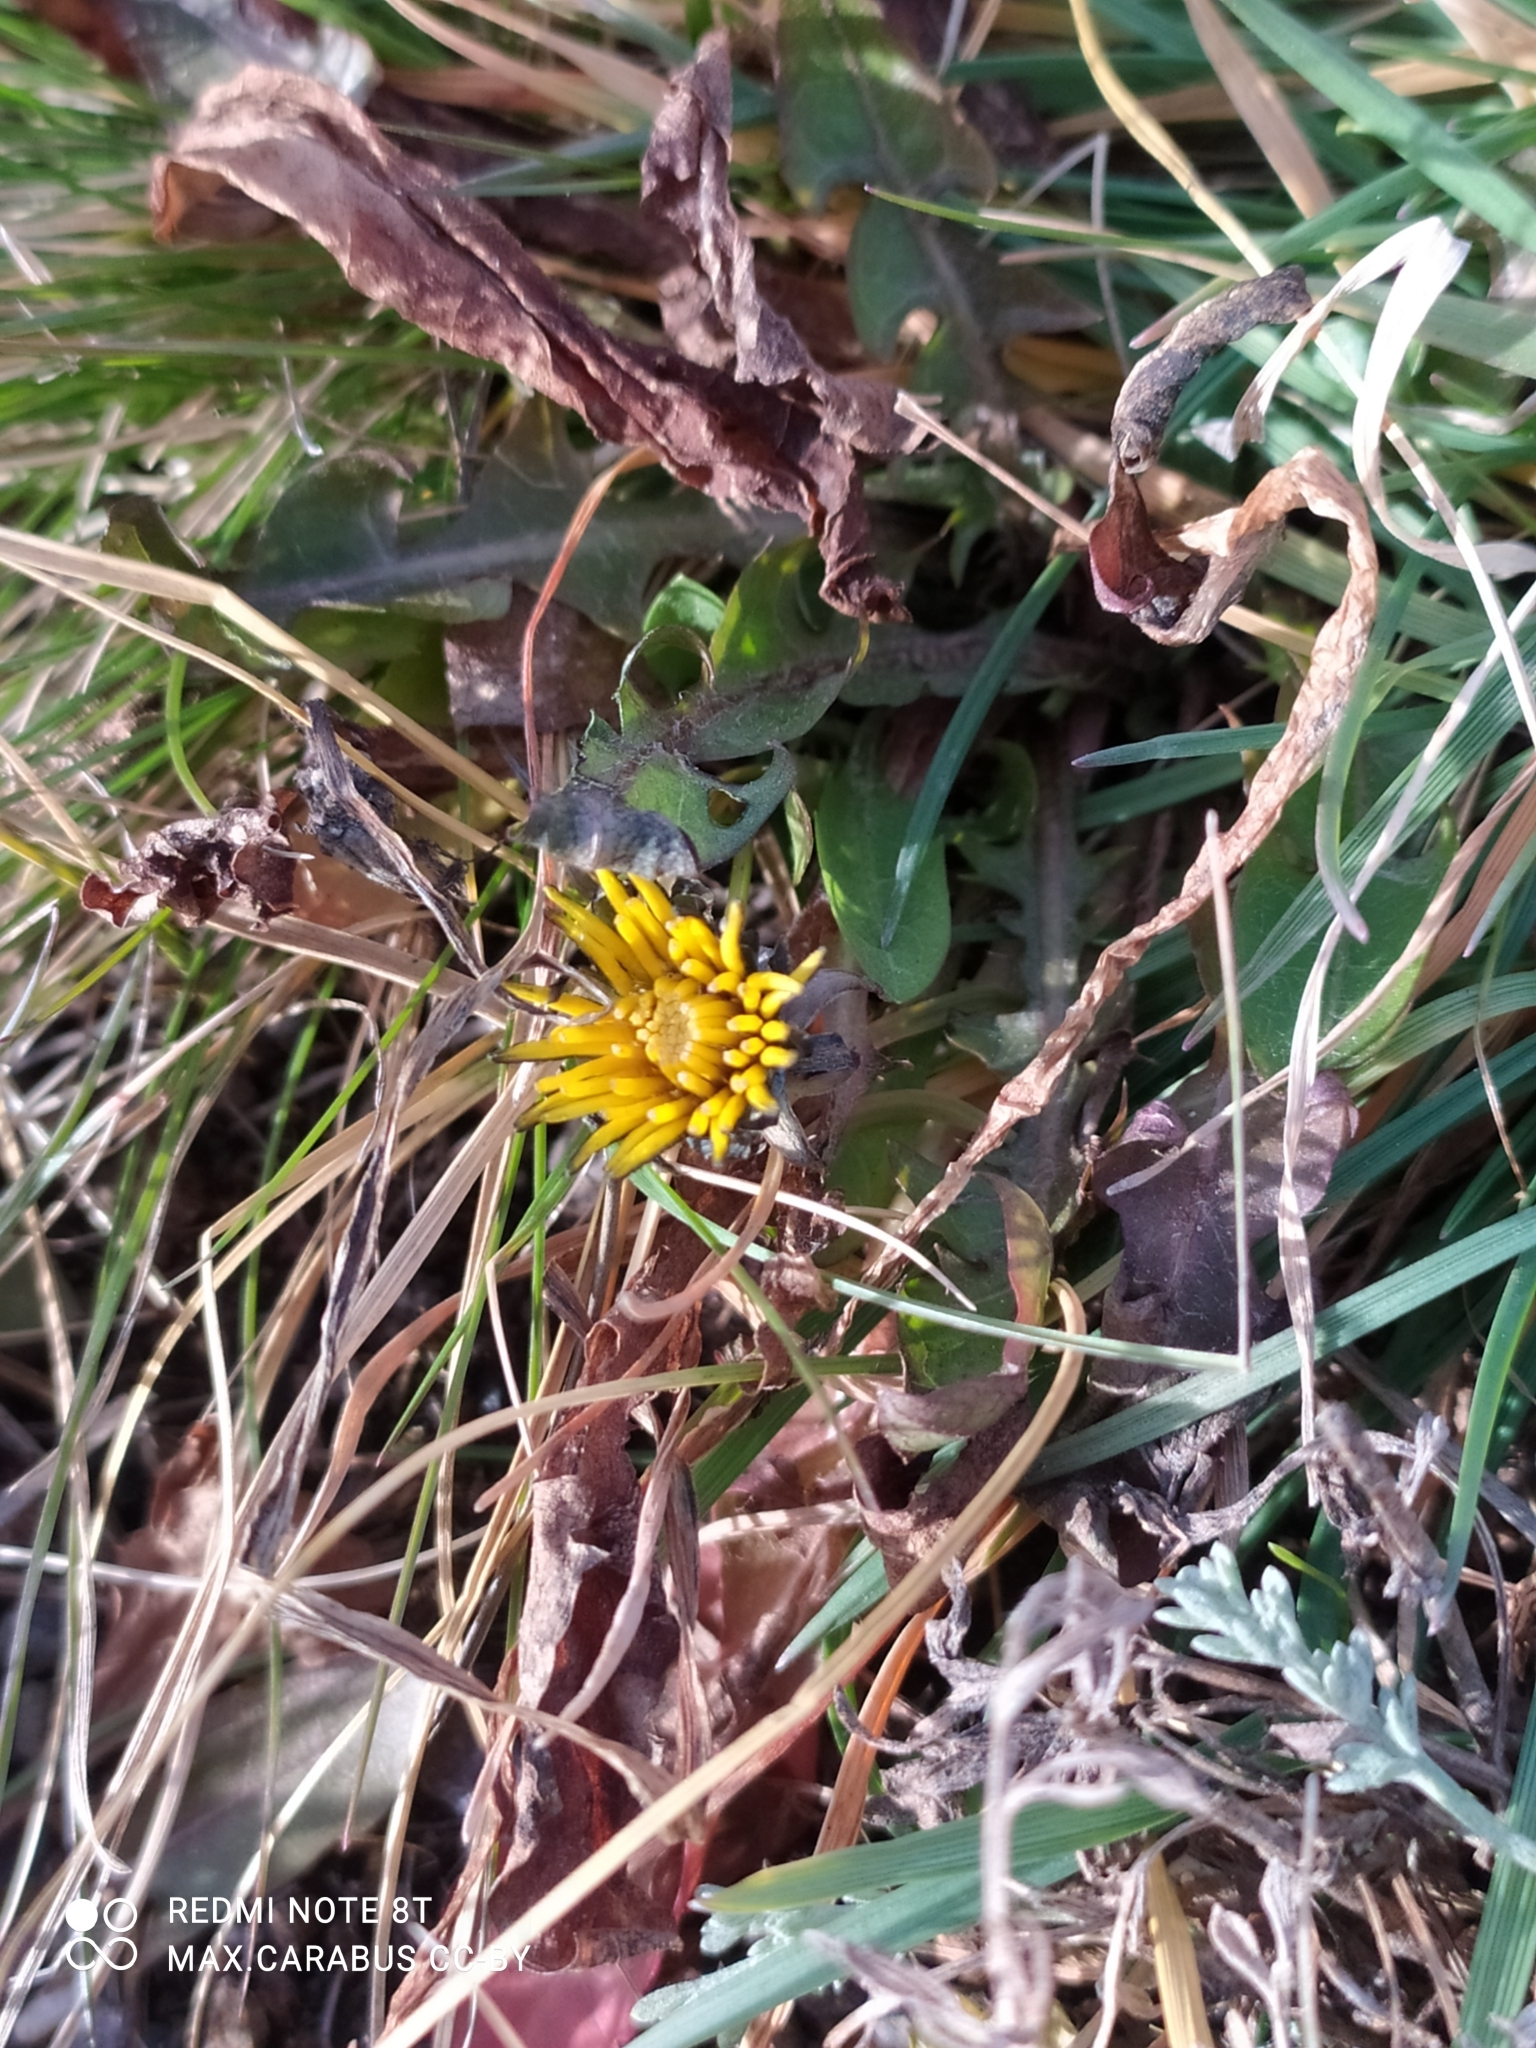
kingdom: Plantae
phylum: Tracheophyta
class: Magnoliopsida
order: Asterales
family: Asteraceae
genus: Taraxacum
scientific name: Taraxacum officinale
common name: Common dandelion
